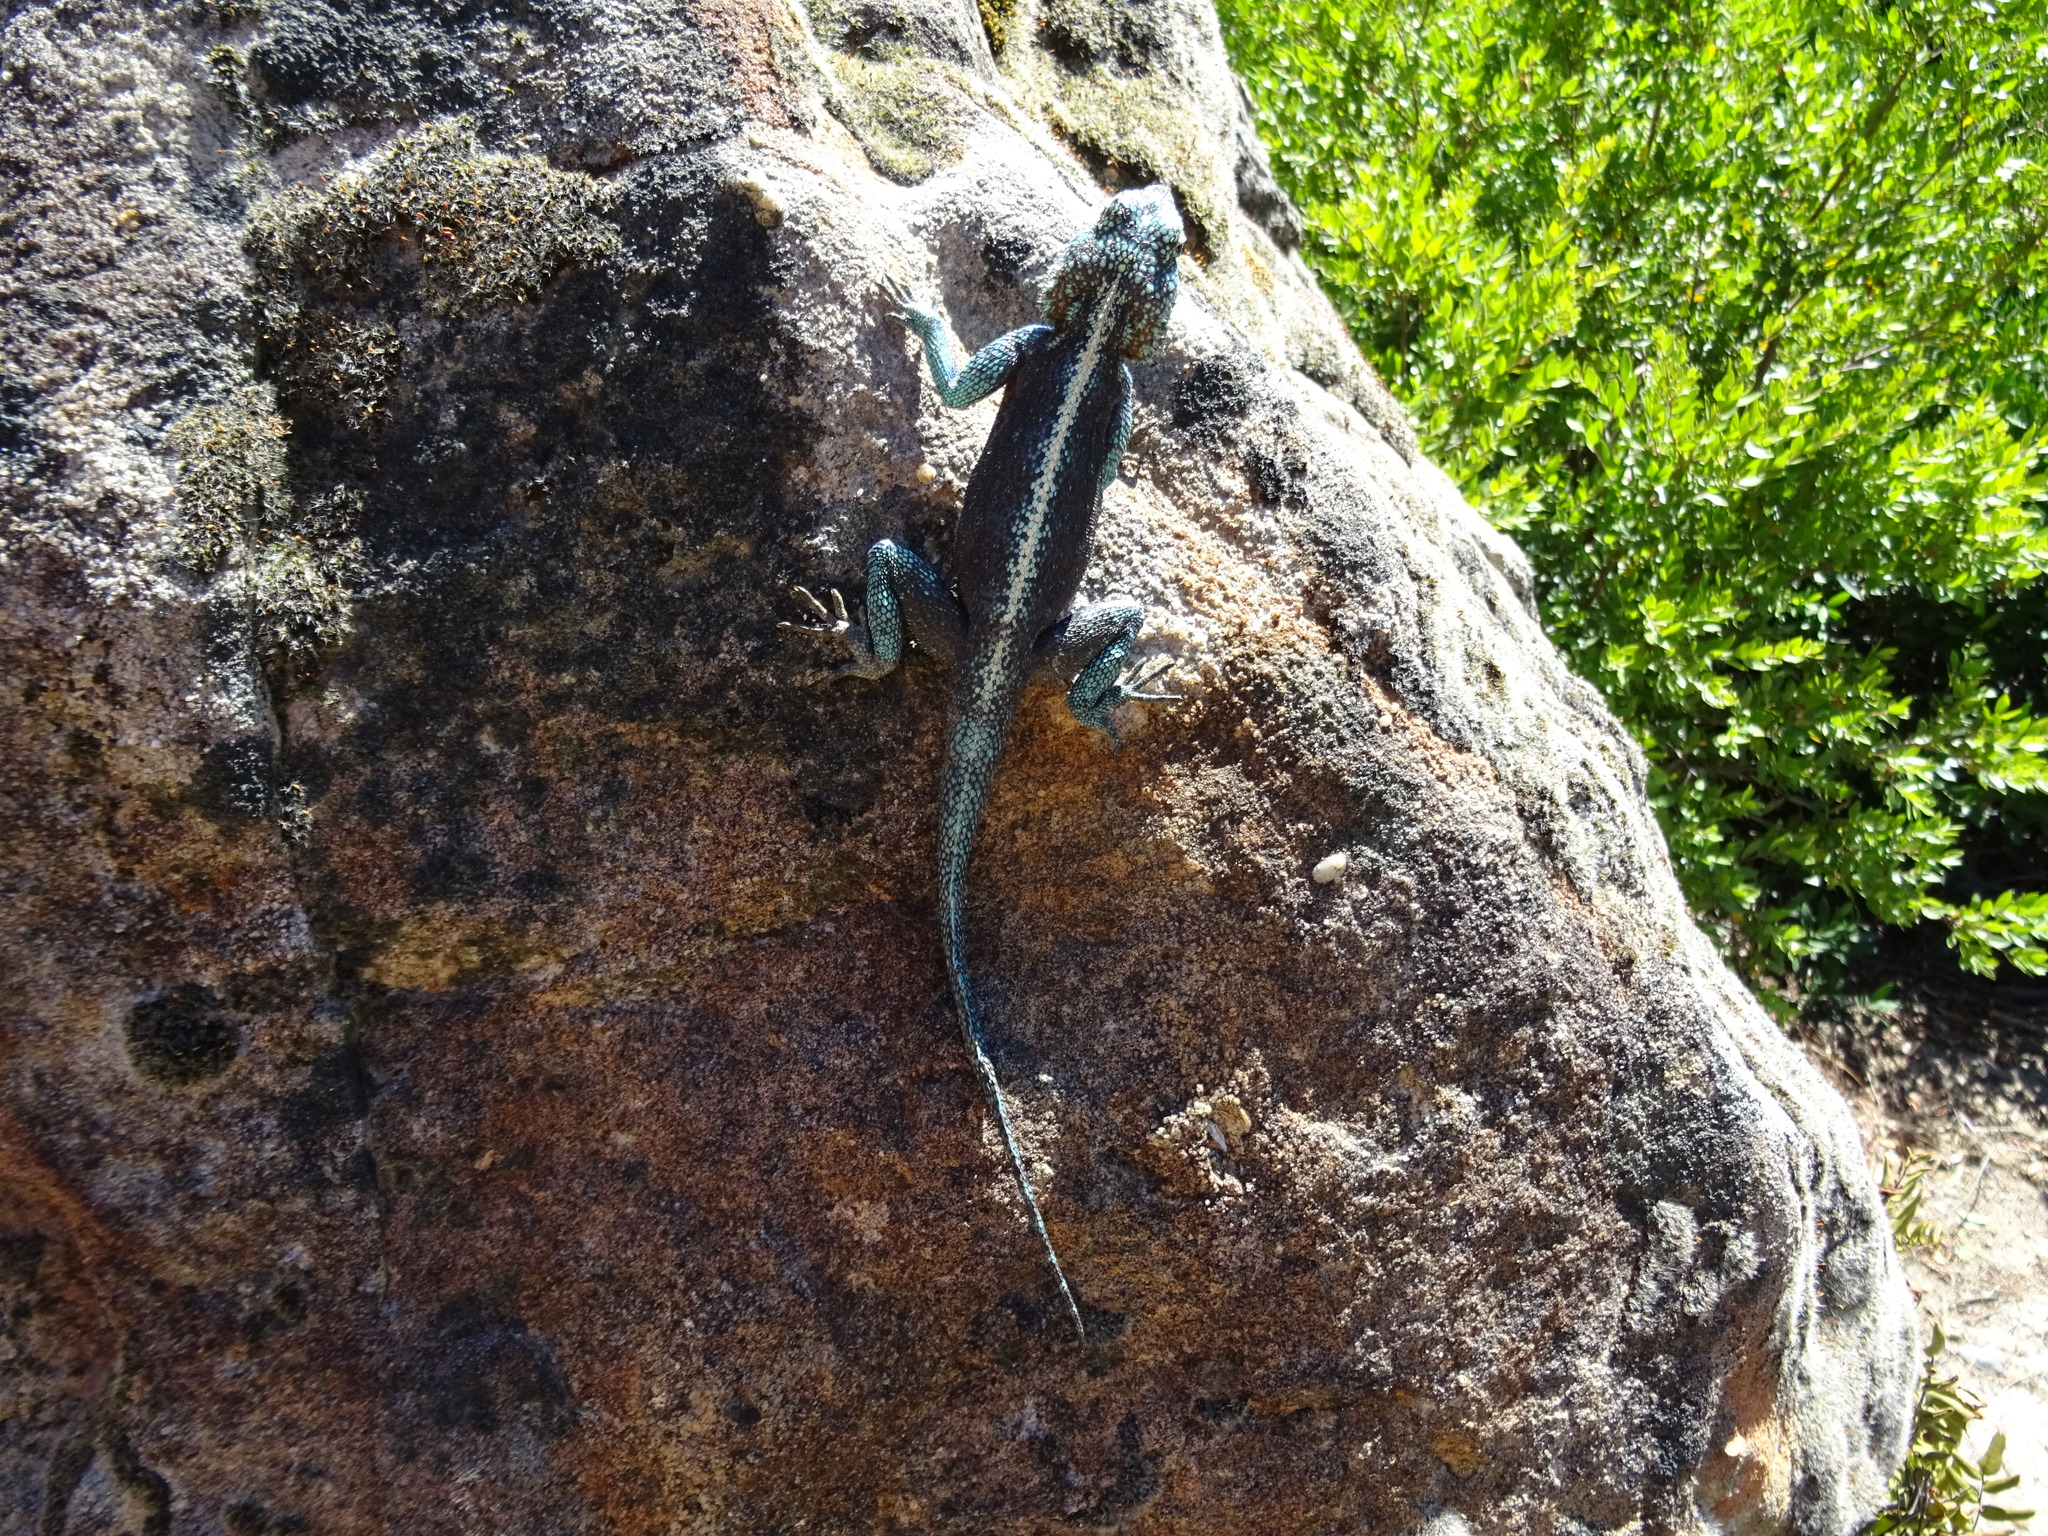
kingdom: Animalia
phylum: Chordata
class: Squamata
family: Agamidae
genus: Agama
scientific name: Agama atra
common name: Southern african rock agama
